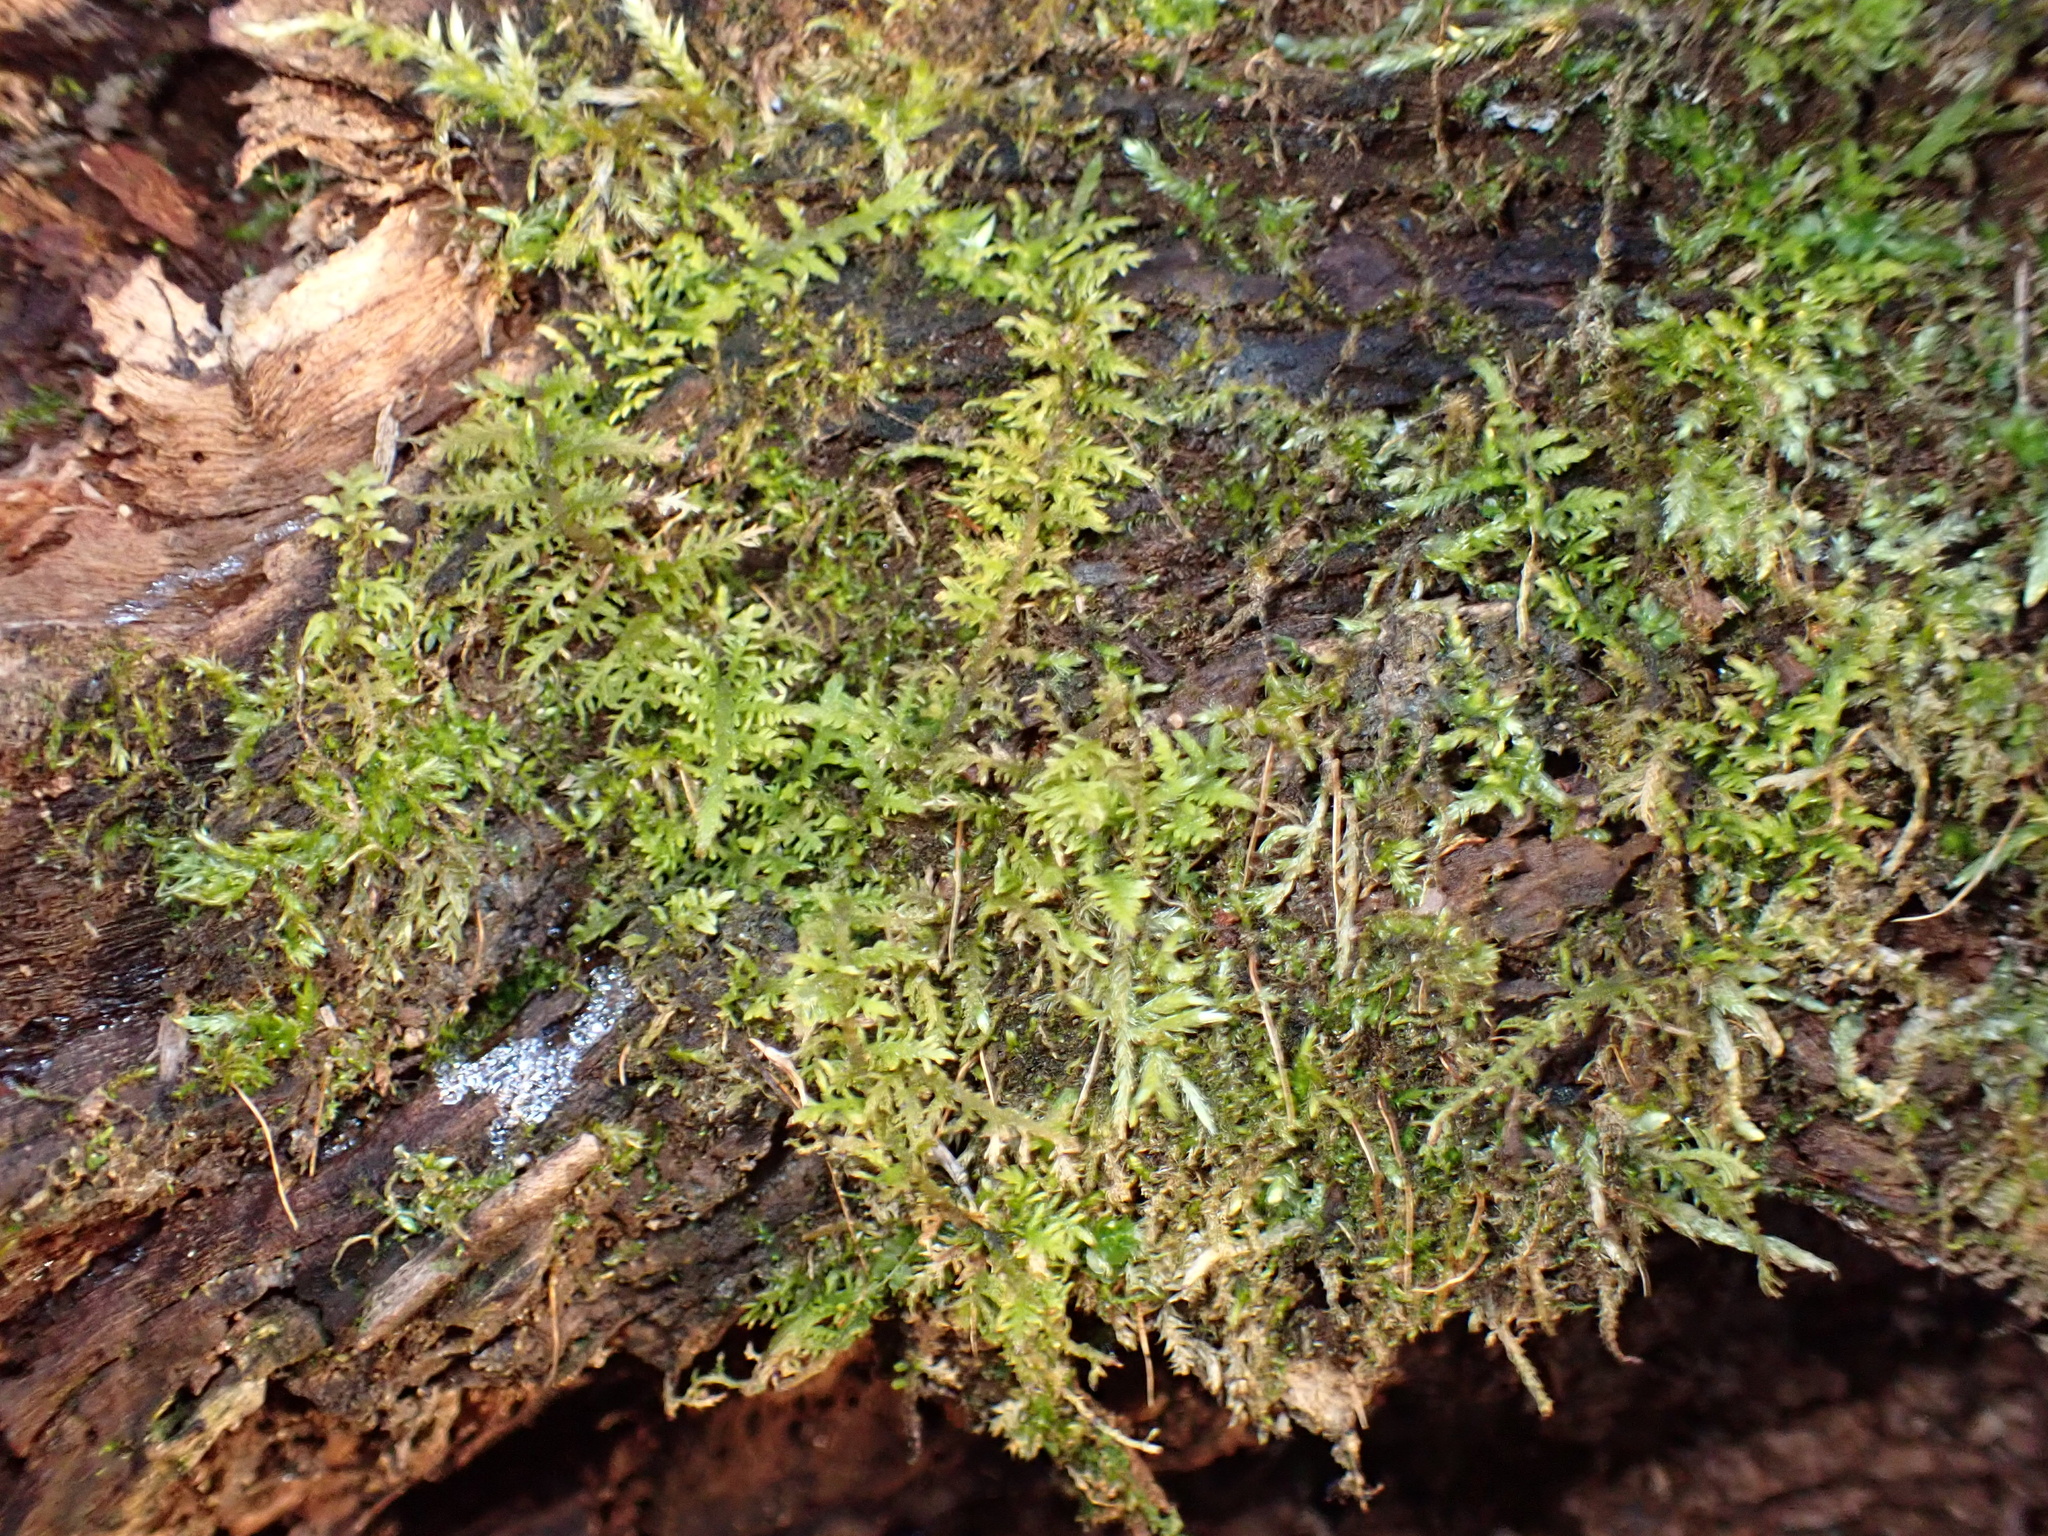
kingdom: Plantae
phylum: Bryophyta
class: Bryopsida
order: Hypnales
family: Thuidiaceae
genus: Thuidium
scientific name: Thuidium delicatulum
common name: Delicate fern moss
